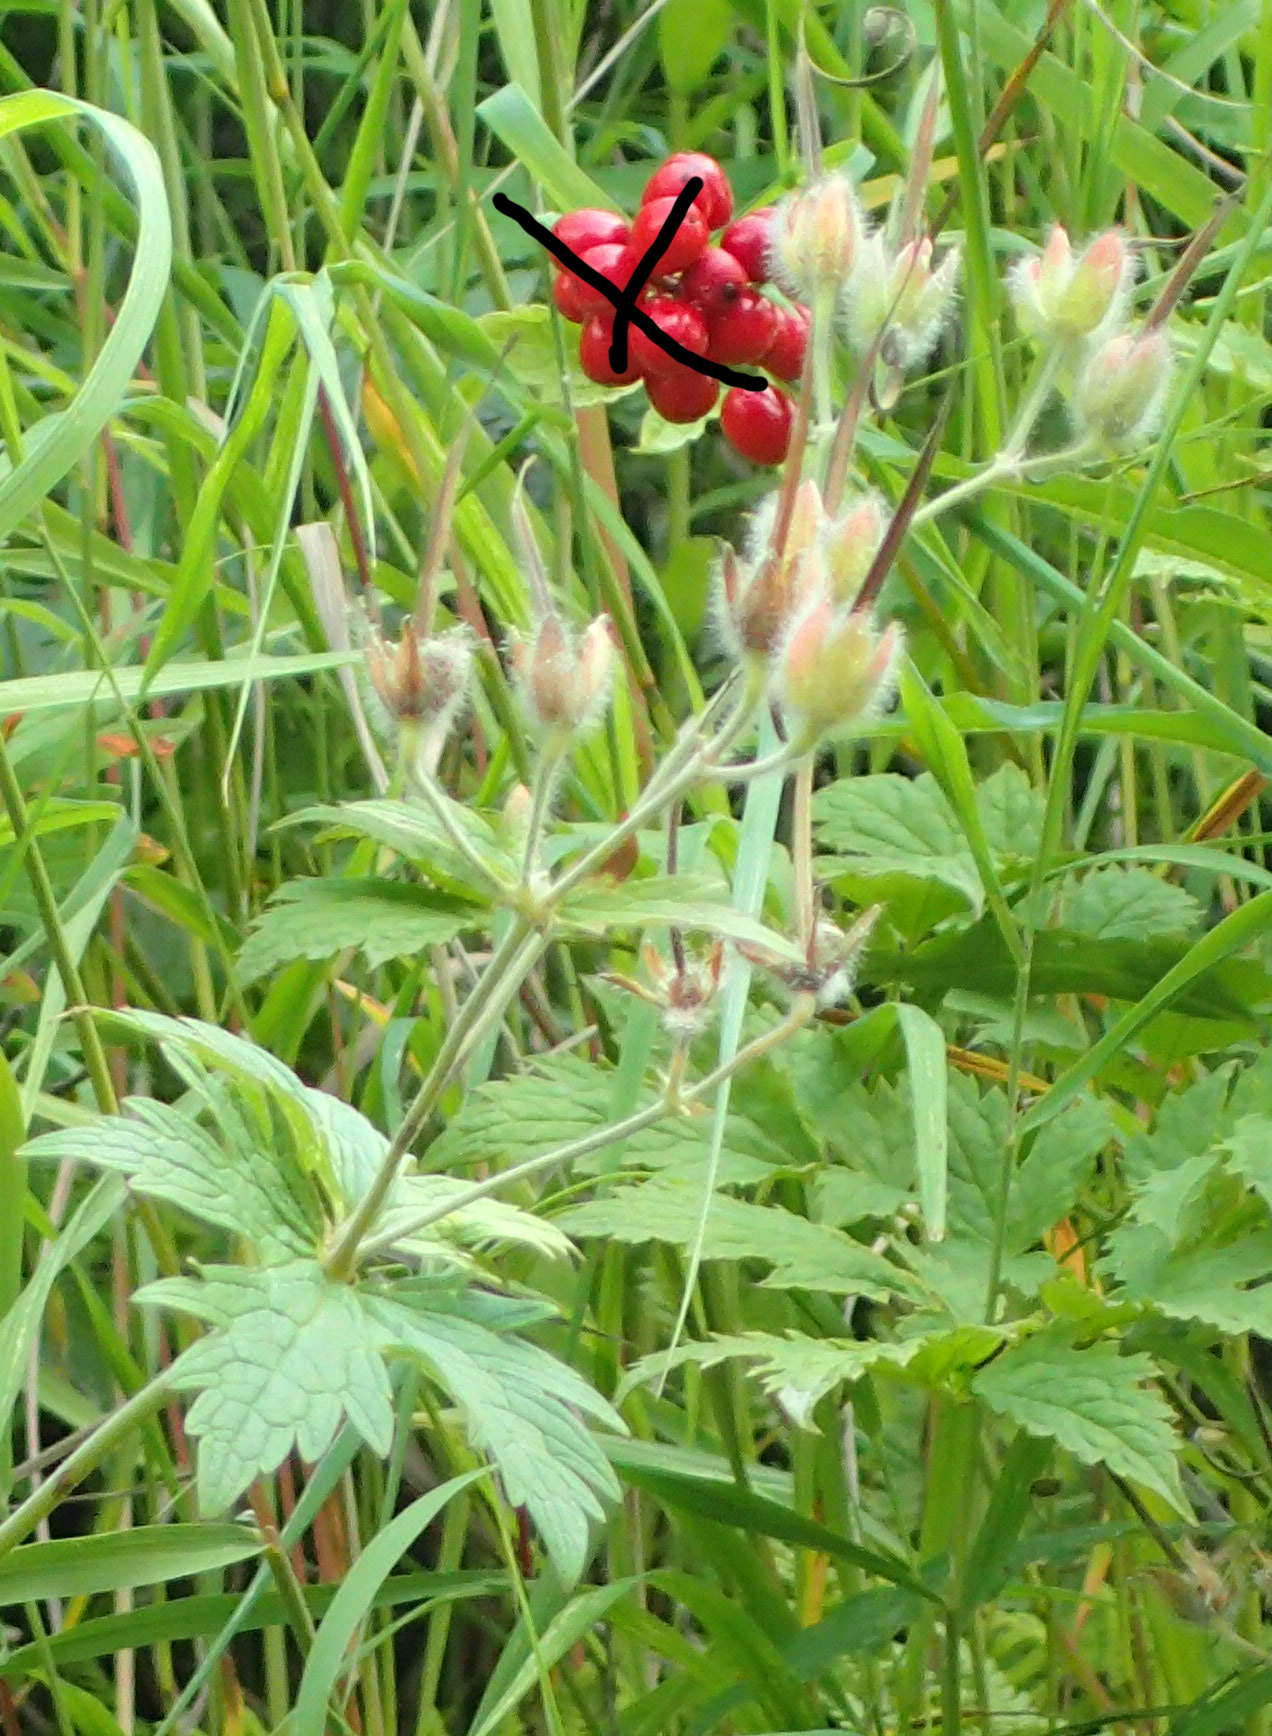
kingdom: Plantae
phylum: Tracheophyta
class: Magnoliopsida
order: Geraniales
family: Geraniaceae
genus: Geranium
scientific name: Geranium erianthum
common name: Northern crane's-bill
